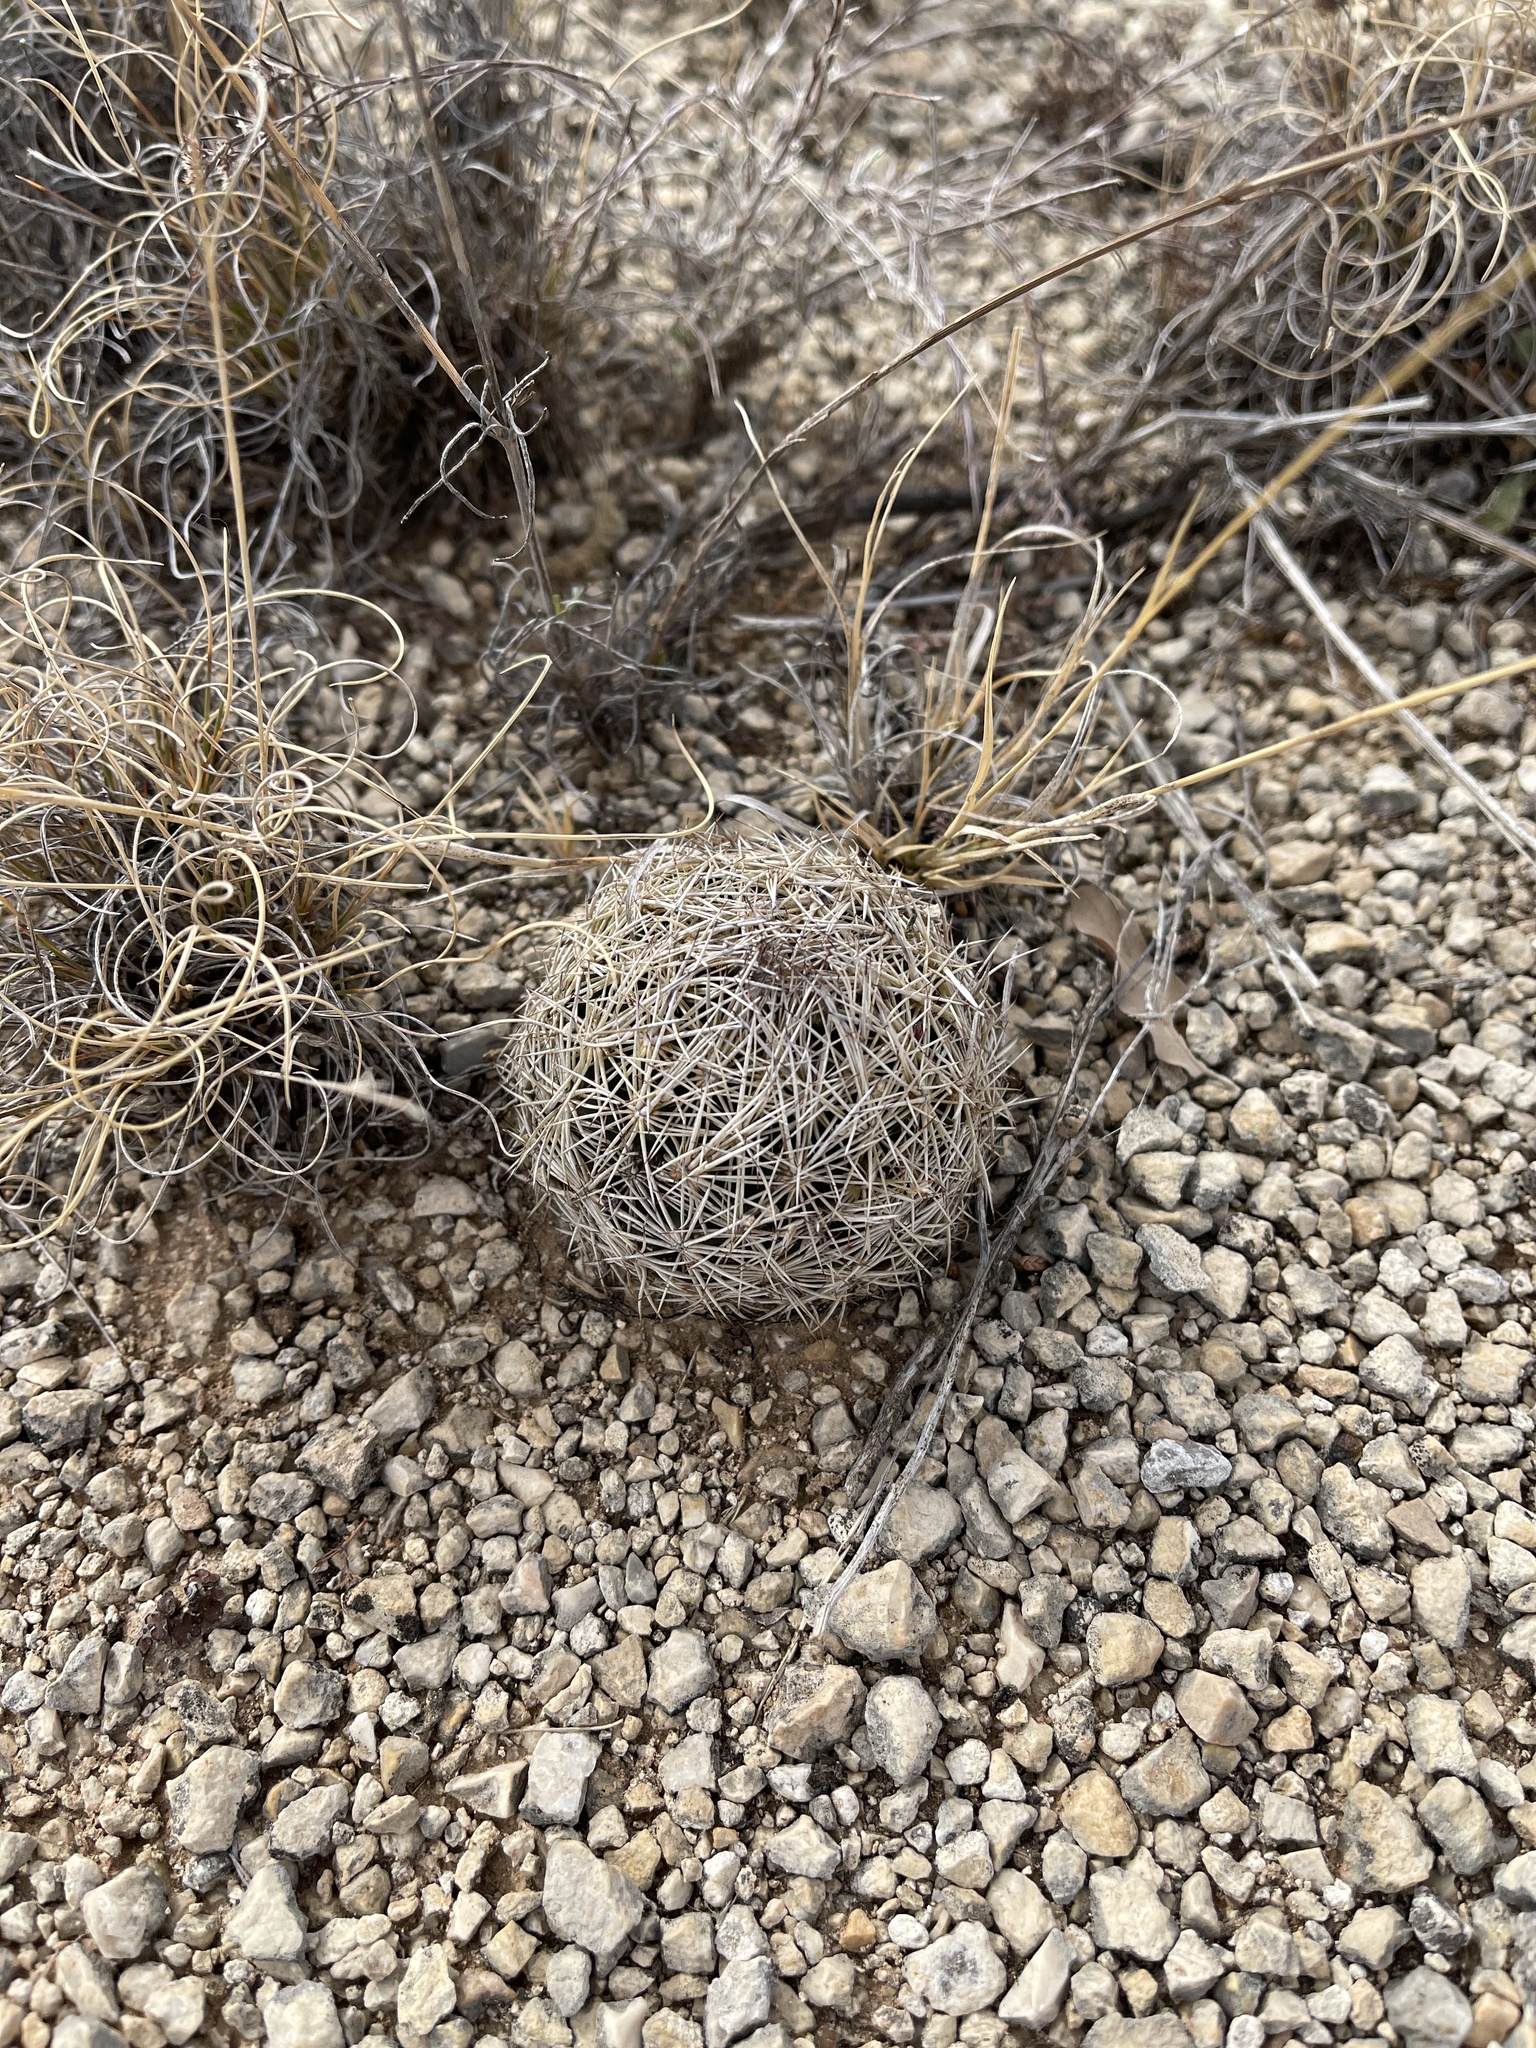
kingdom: Plantae
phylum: Tracheophyta
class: Magnoliopsida
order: Caryophyllales
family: Cactaceae
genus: Coryphantha
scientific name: Coryphantha echinus
